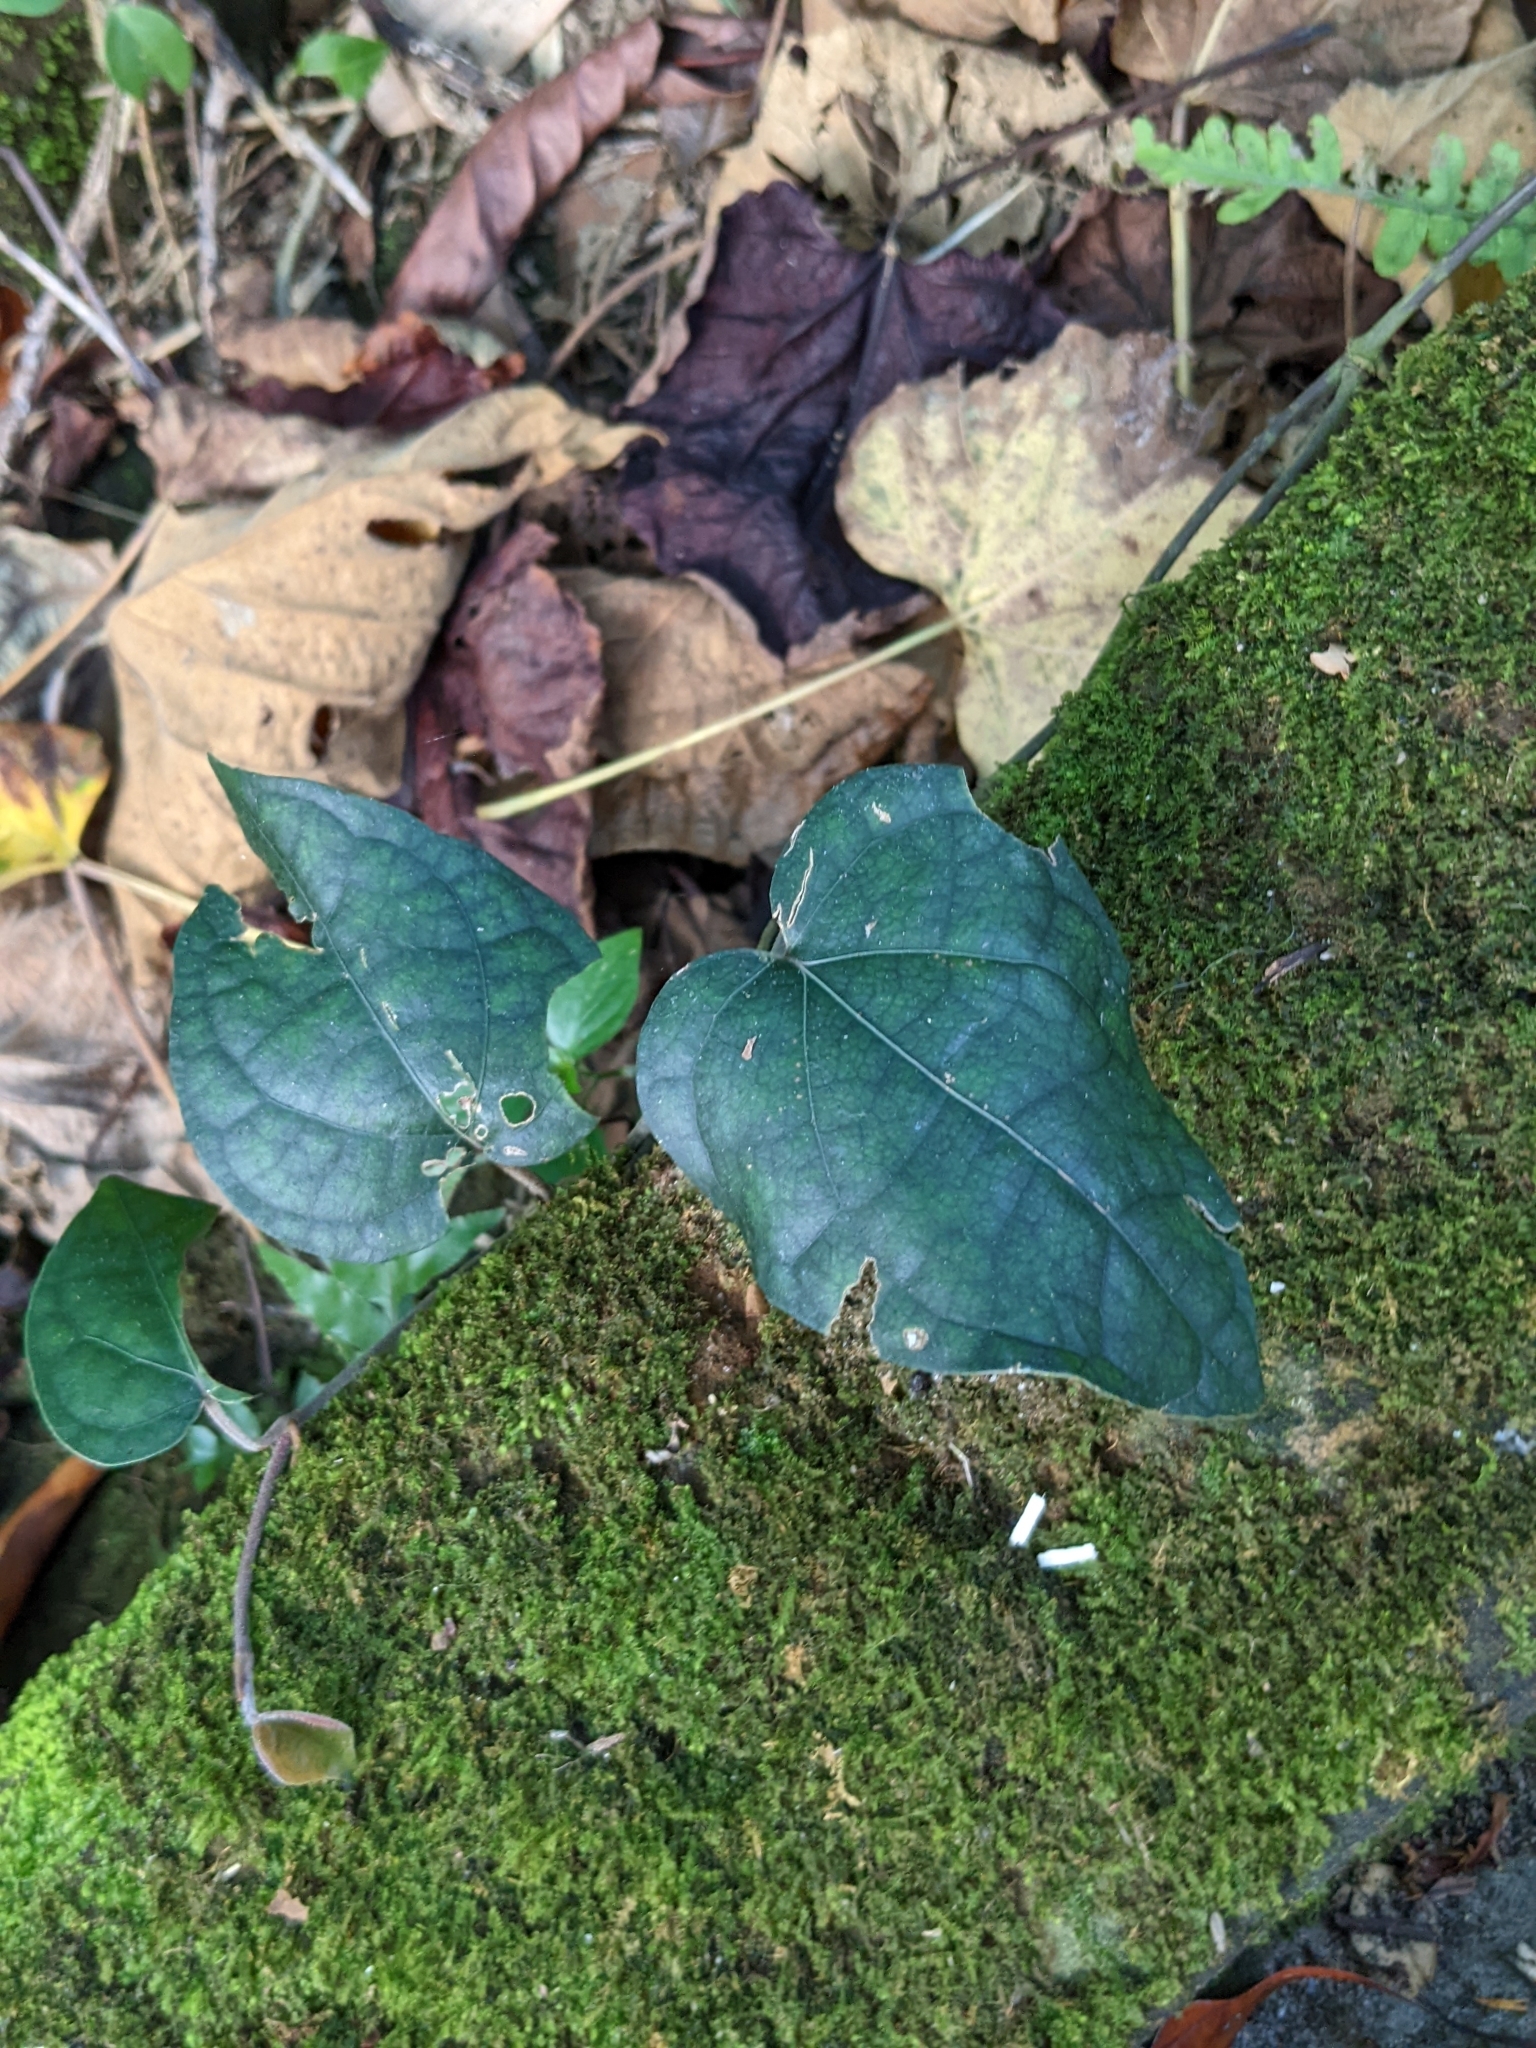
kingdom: Plantae
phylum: Tracheophyta
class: Magnoliopsida
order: Piperales
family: Piperaceae
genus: Piper
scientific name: Piper kadsura
